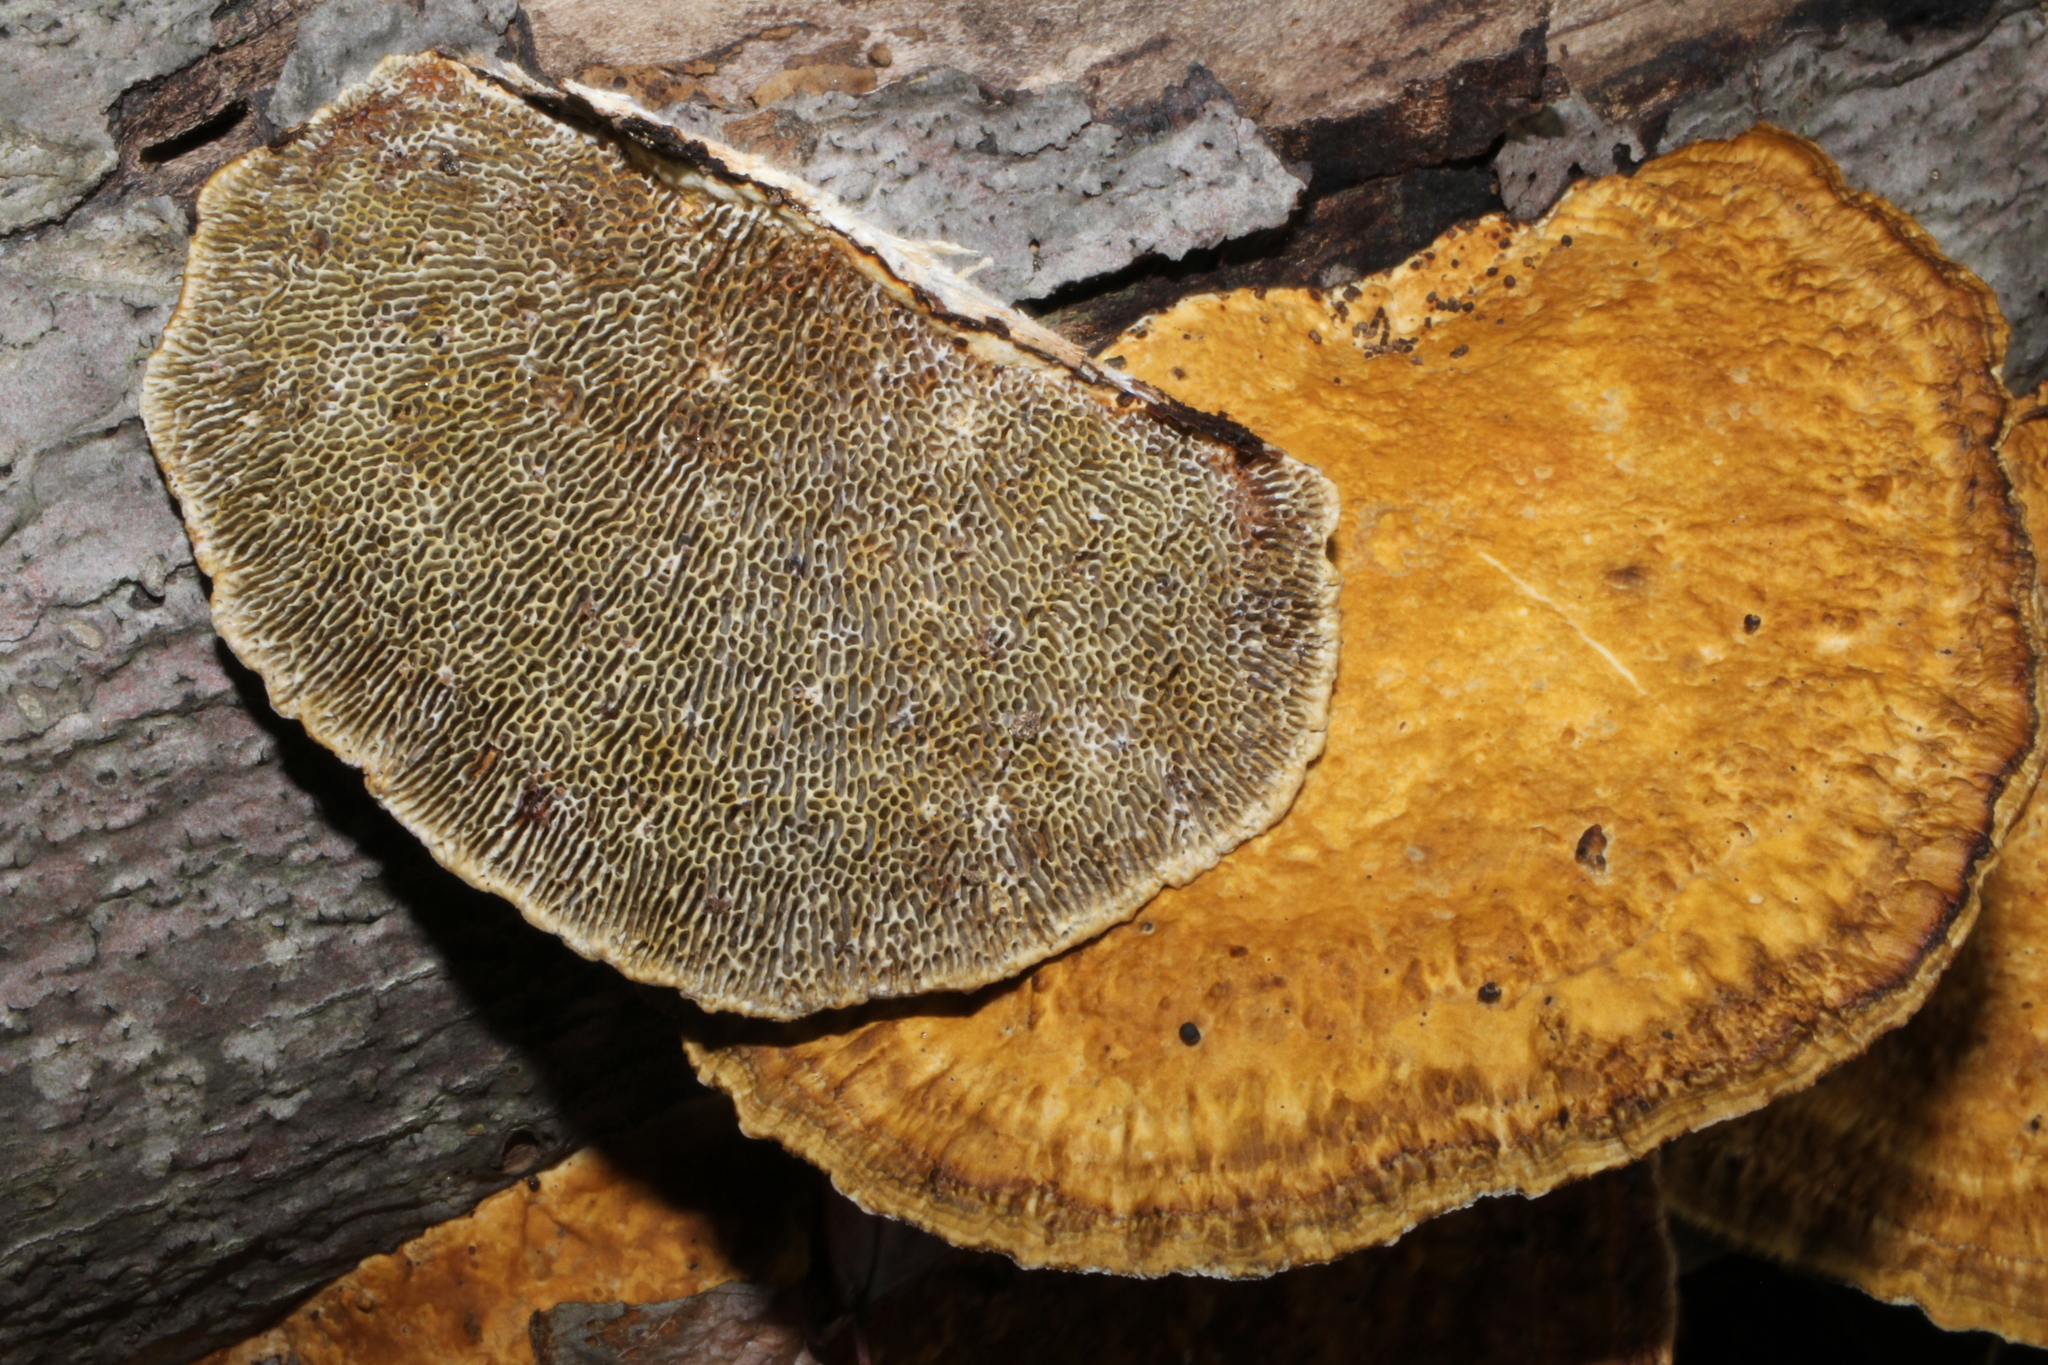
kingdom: Fungi
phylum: Basidiomycota
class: Agaricomycetes
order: Polyporales
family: Polyporaceae
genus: Daedaleopsis
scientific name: Daedaleopsis confragosa
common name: Blushing bracket
